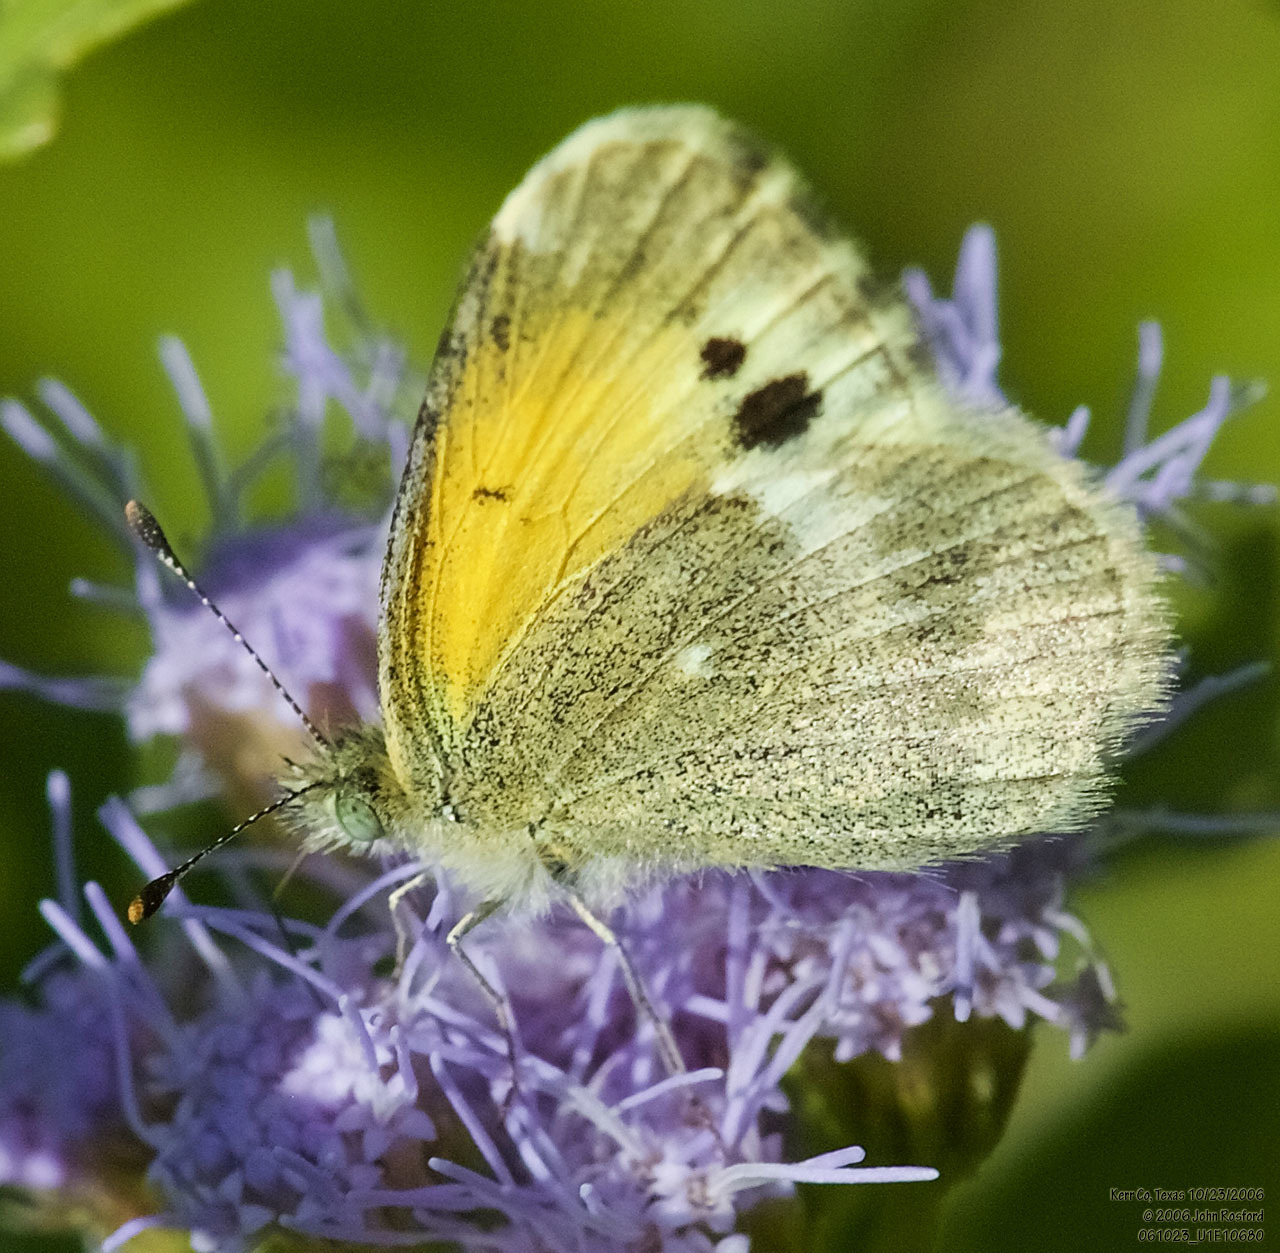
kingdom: Animalia
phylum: Arthropoda
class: Insecta
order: Lepidoptera
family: Pieridae
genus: Nathalis
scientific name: Nathalis iole
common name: Dainty sulphur
